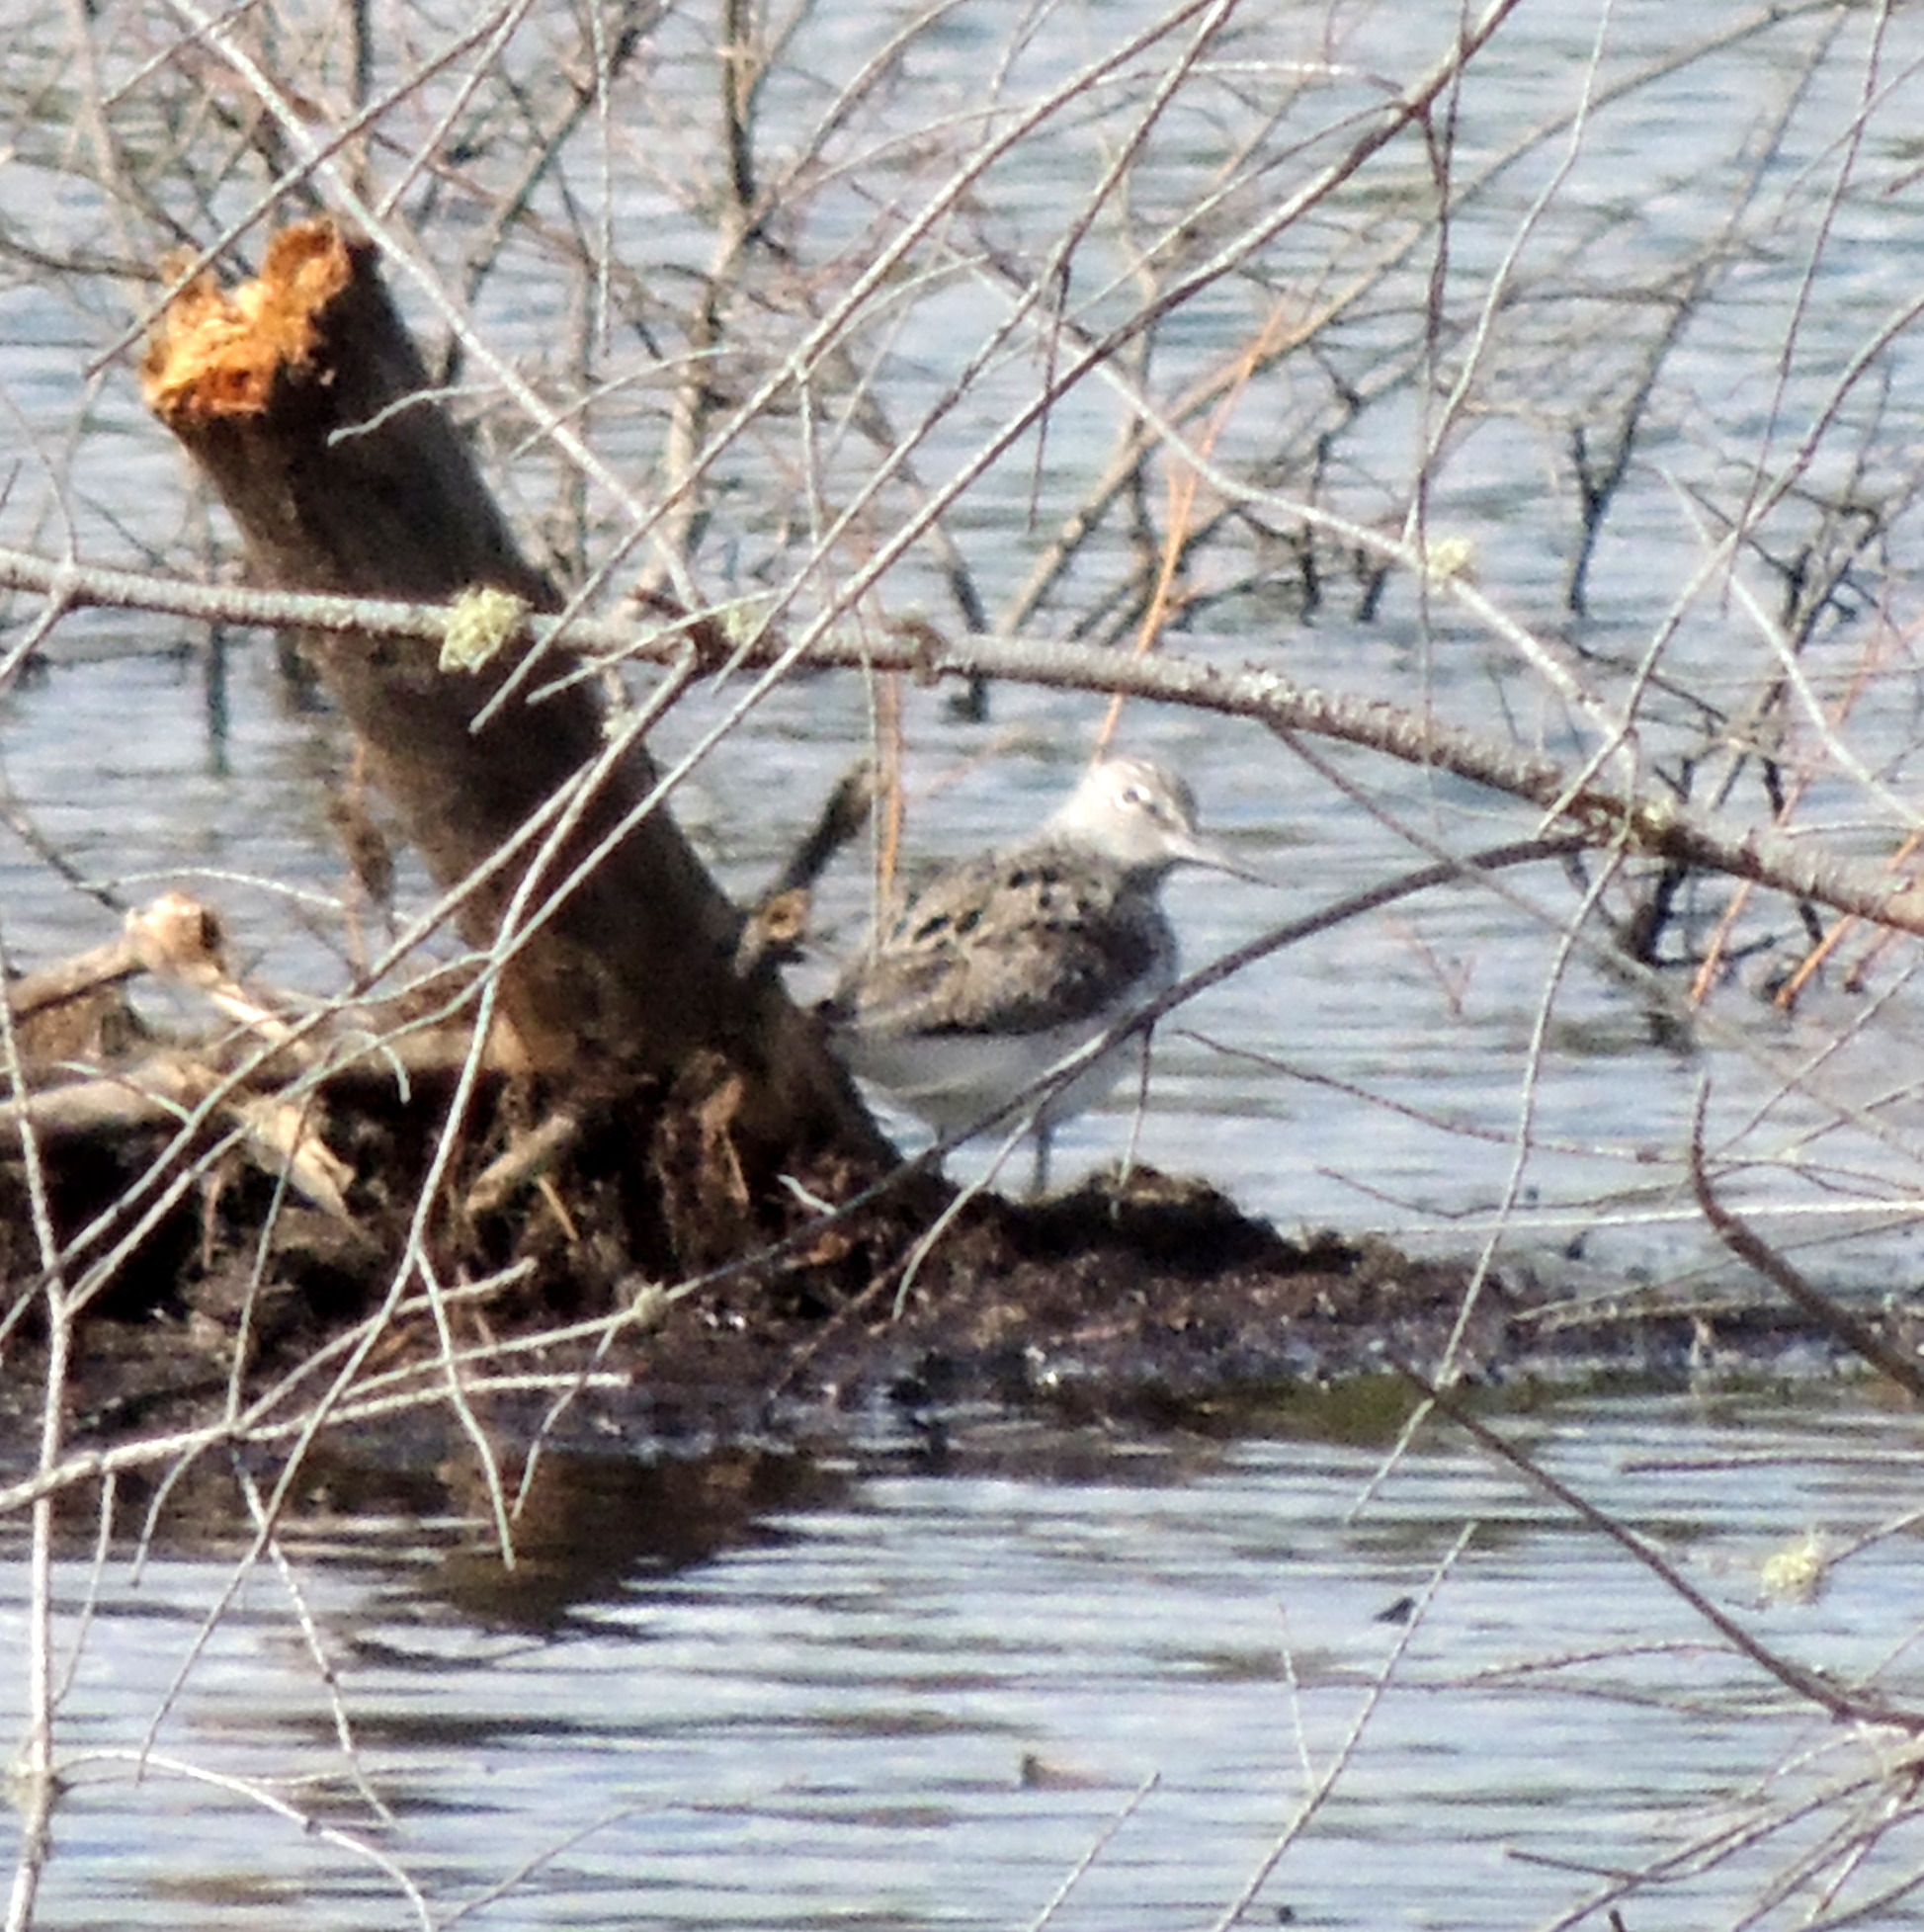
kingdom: Animalia
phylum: Chordata
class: Aves
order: Charadriiformes
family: Scolopacidae
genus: Tringa
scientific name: Tringa nebularia
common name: Common greenshank
